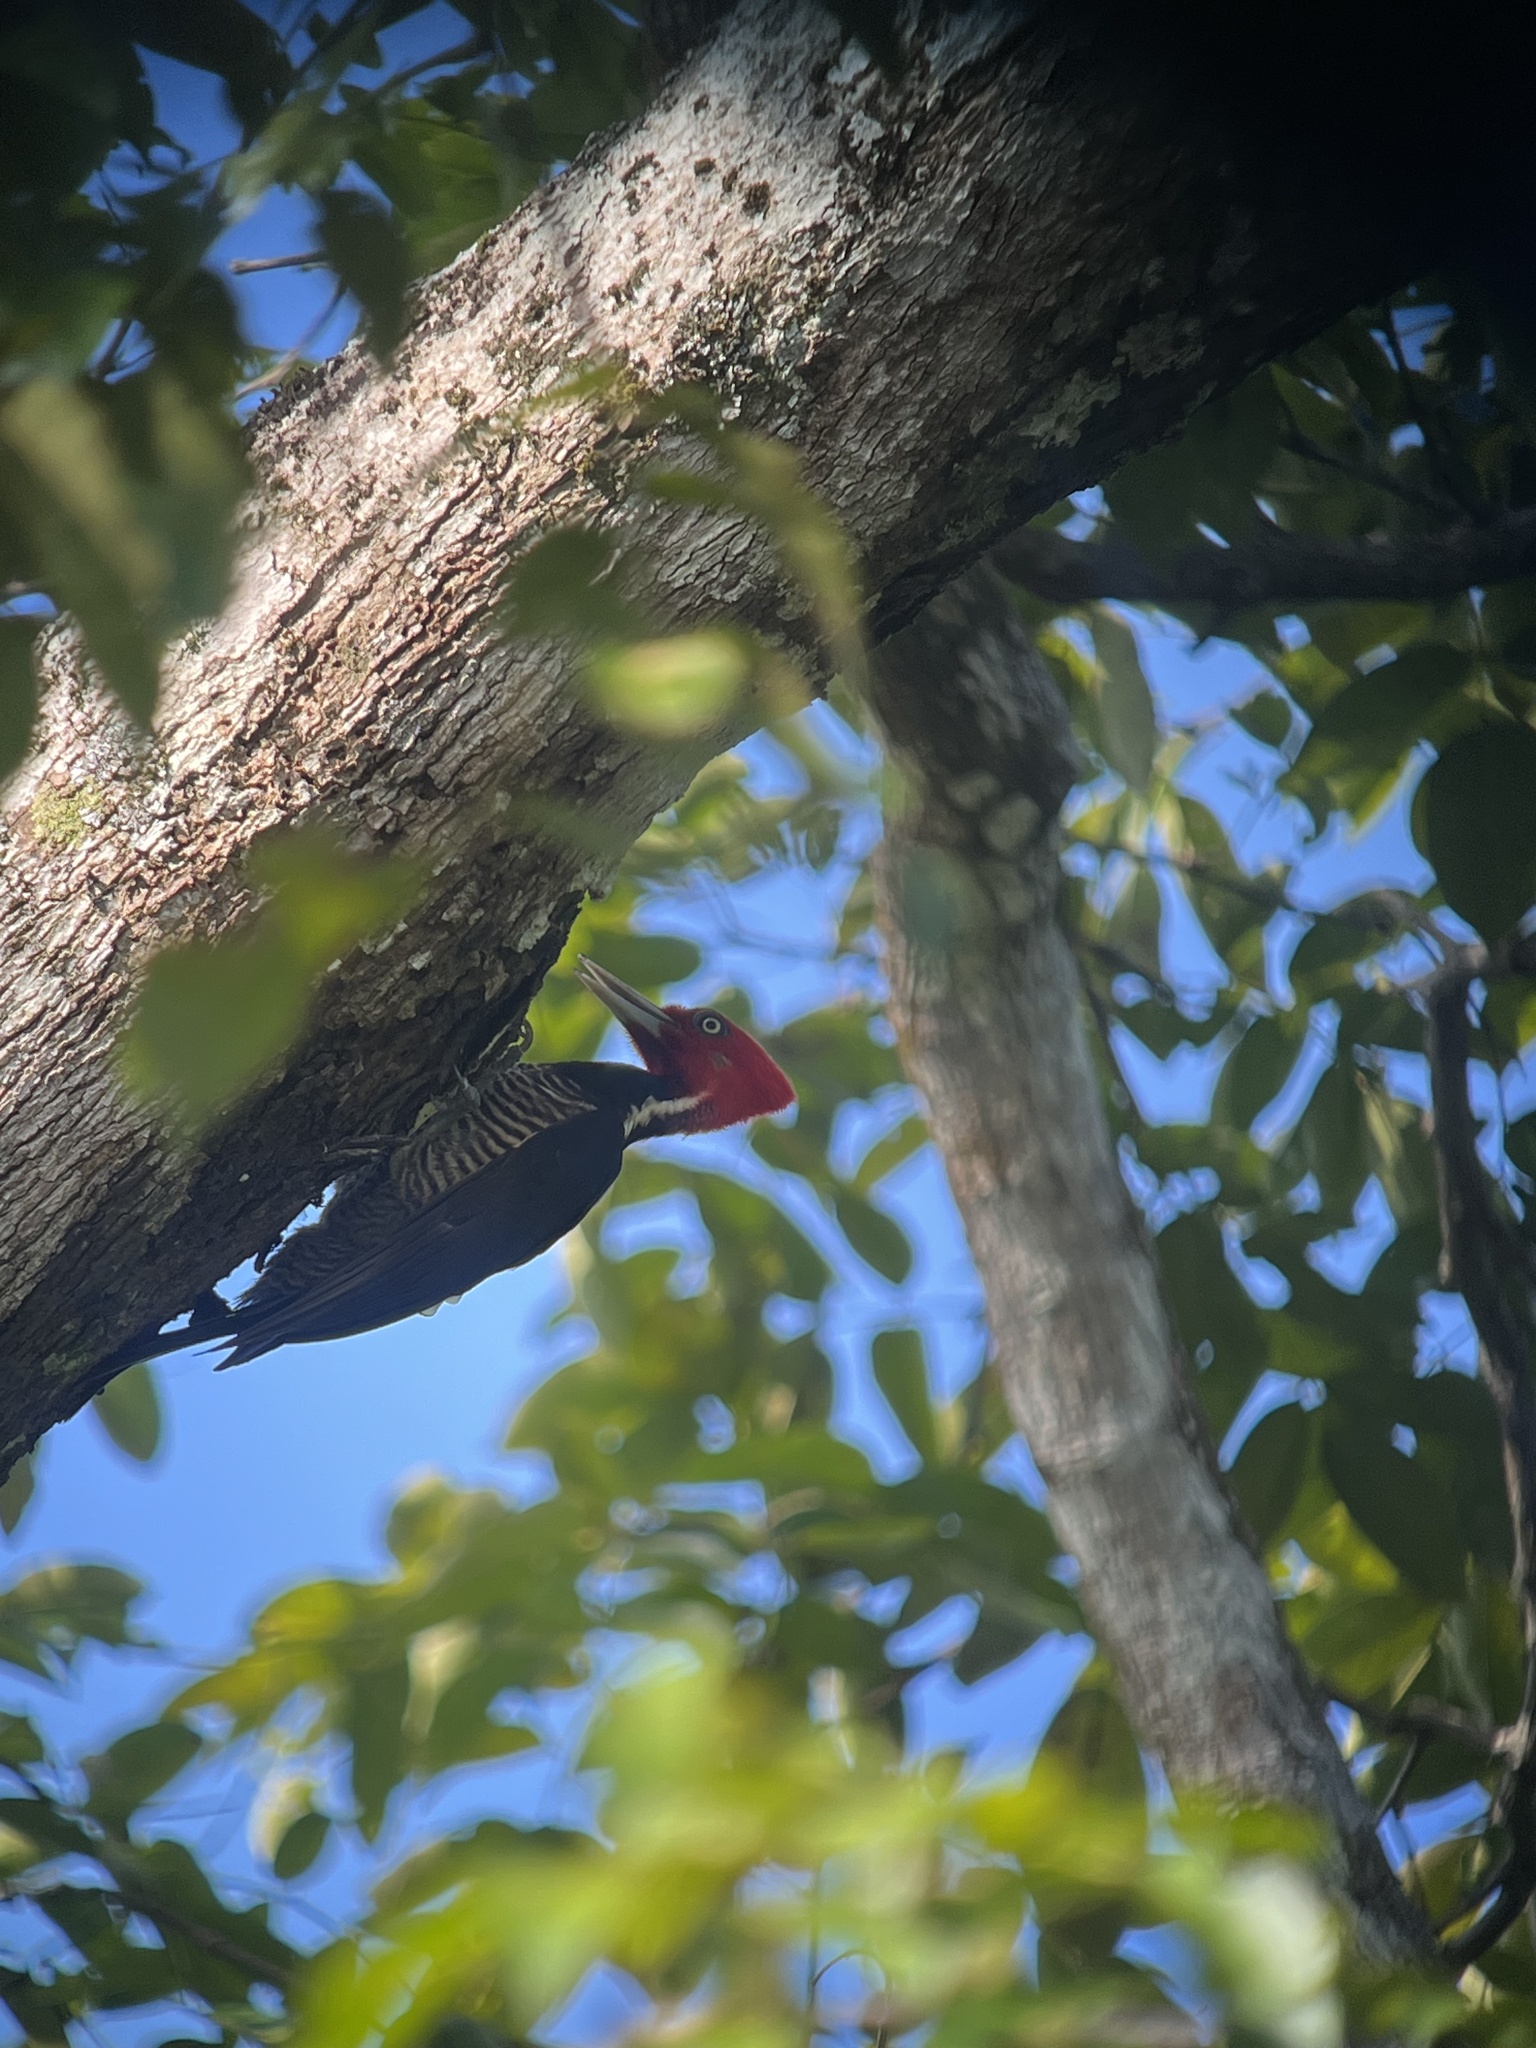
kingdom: Animalia
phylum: Chordata
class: Aves
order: Piciformes
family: Picidae
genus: Campephilus
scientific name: Campephilus guatemalensis
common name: Pale-billed woodpecker
